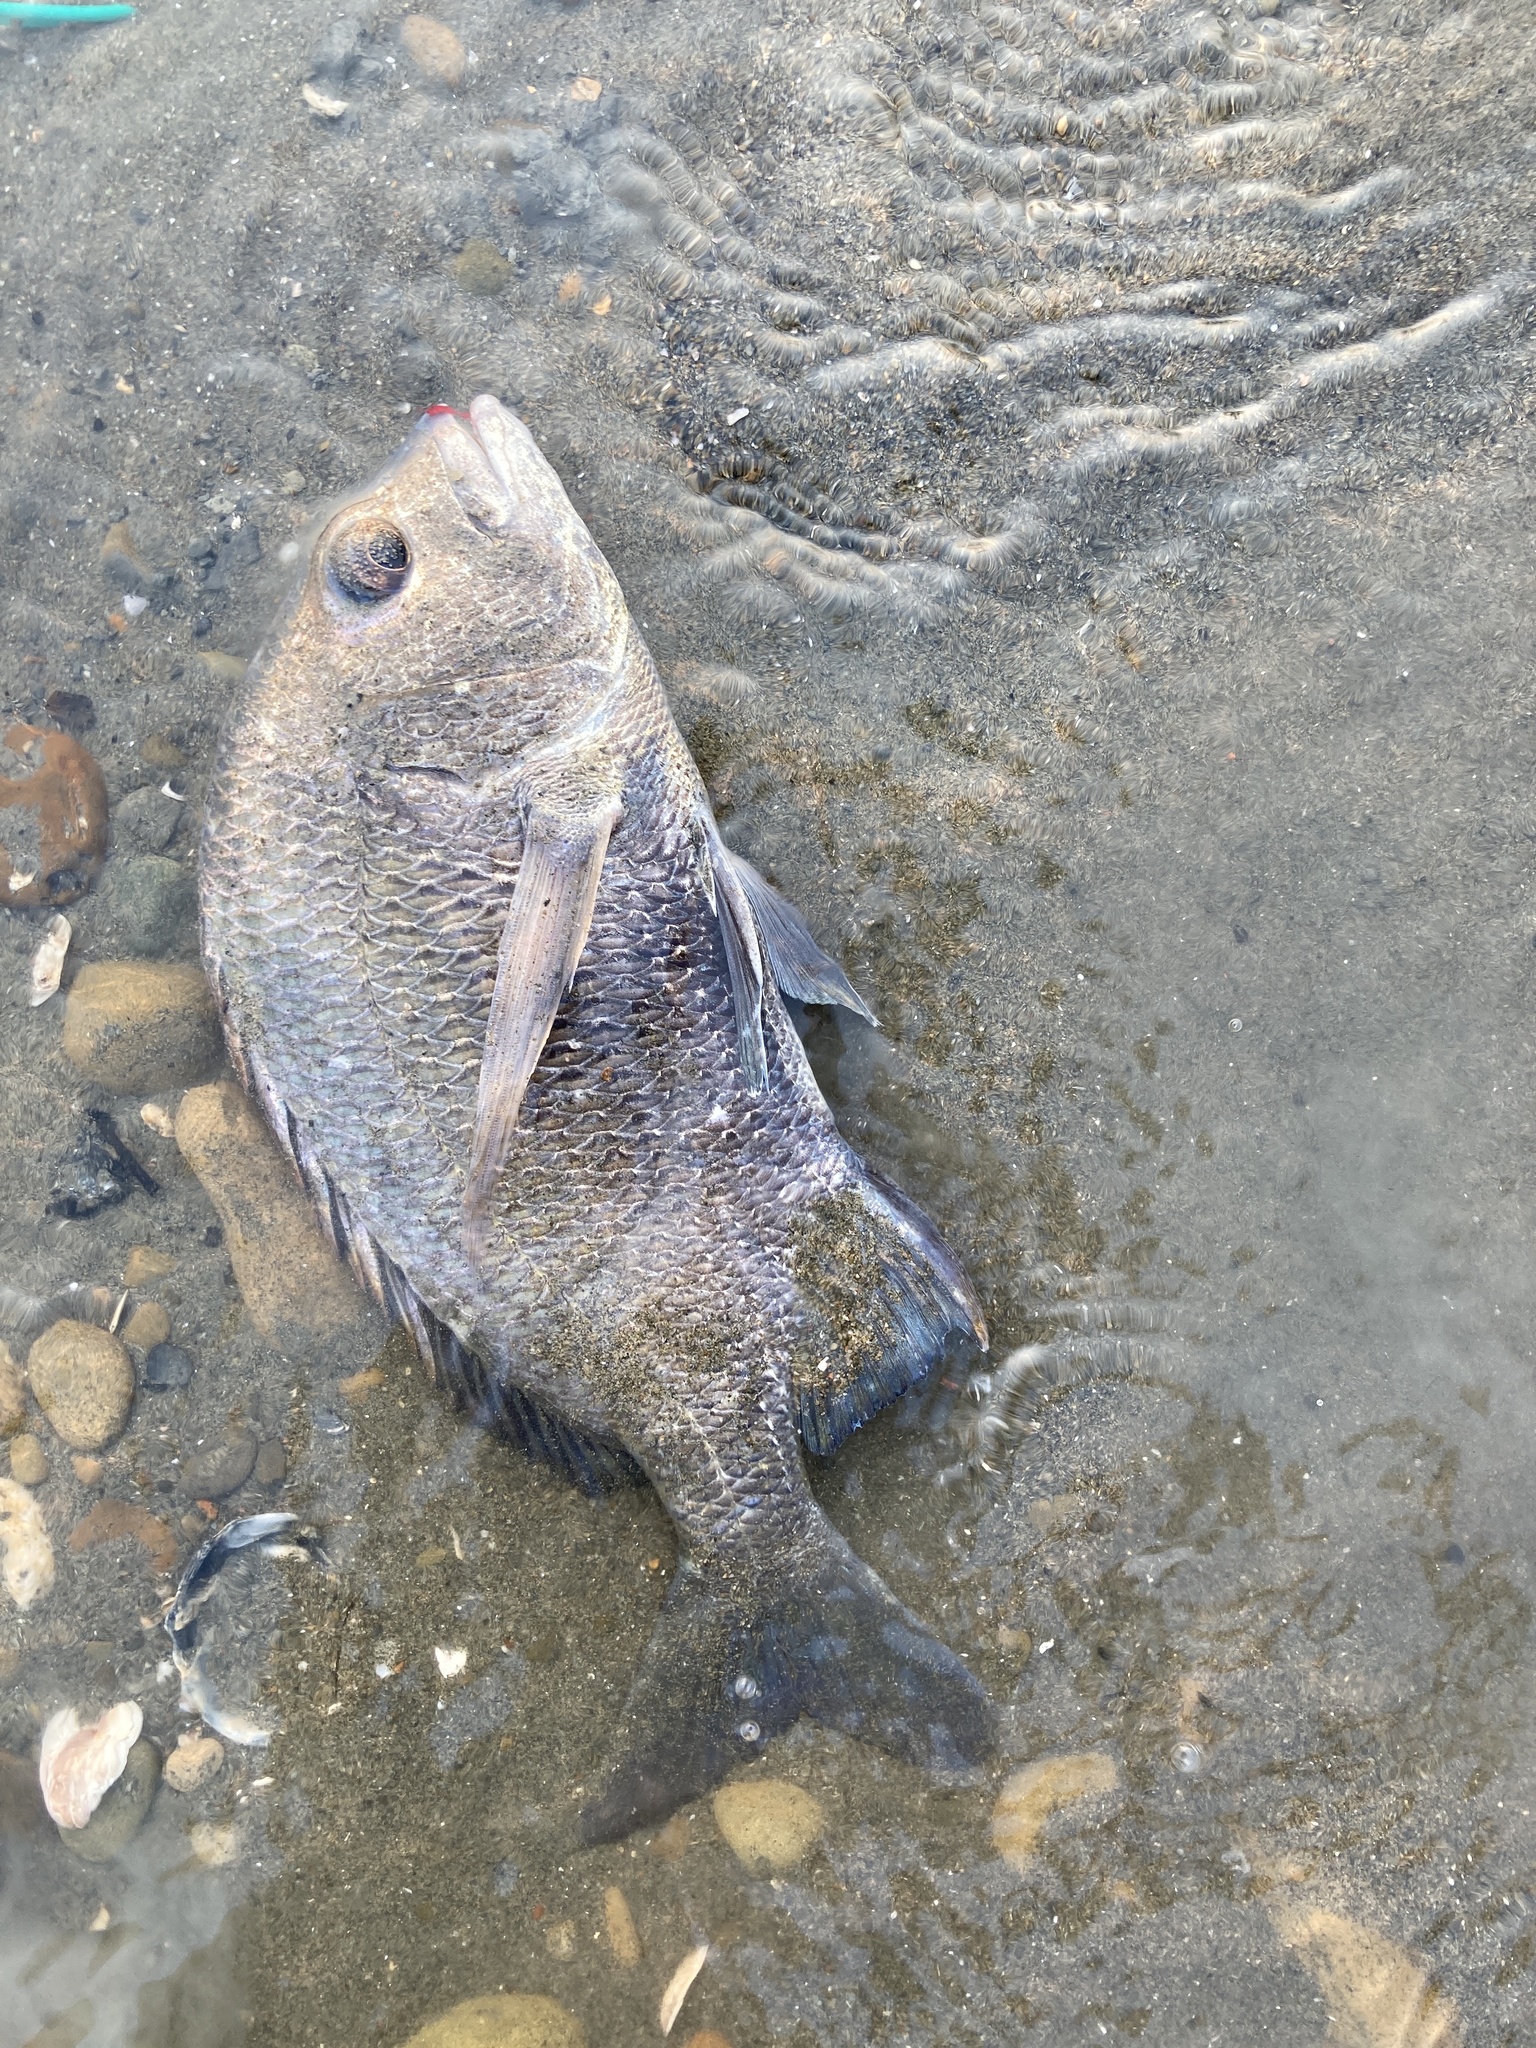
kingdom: Animalia
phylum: Chordata
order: Perciformes
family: Sparidae
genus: Acanthopagrus
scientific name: Acanthopagrus pacificus
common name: Pacific seabream
